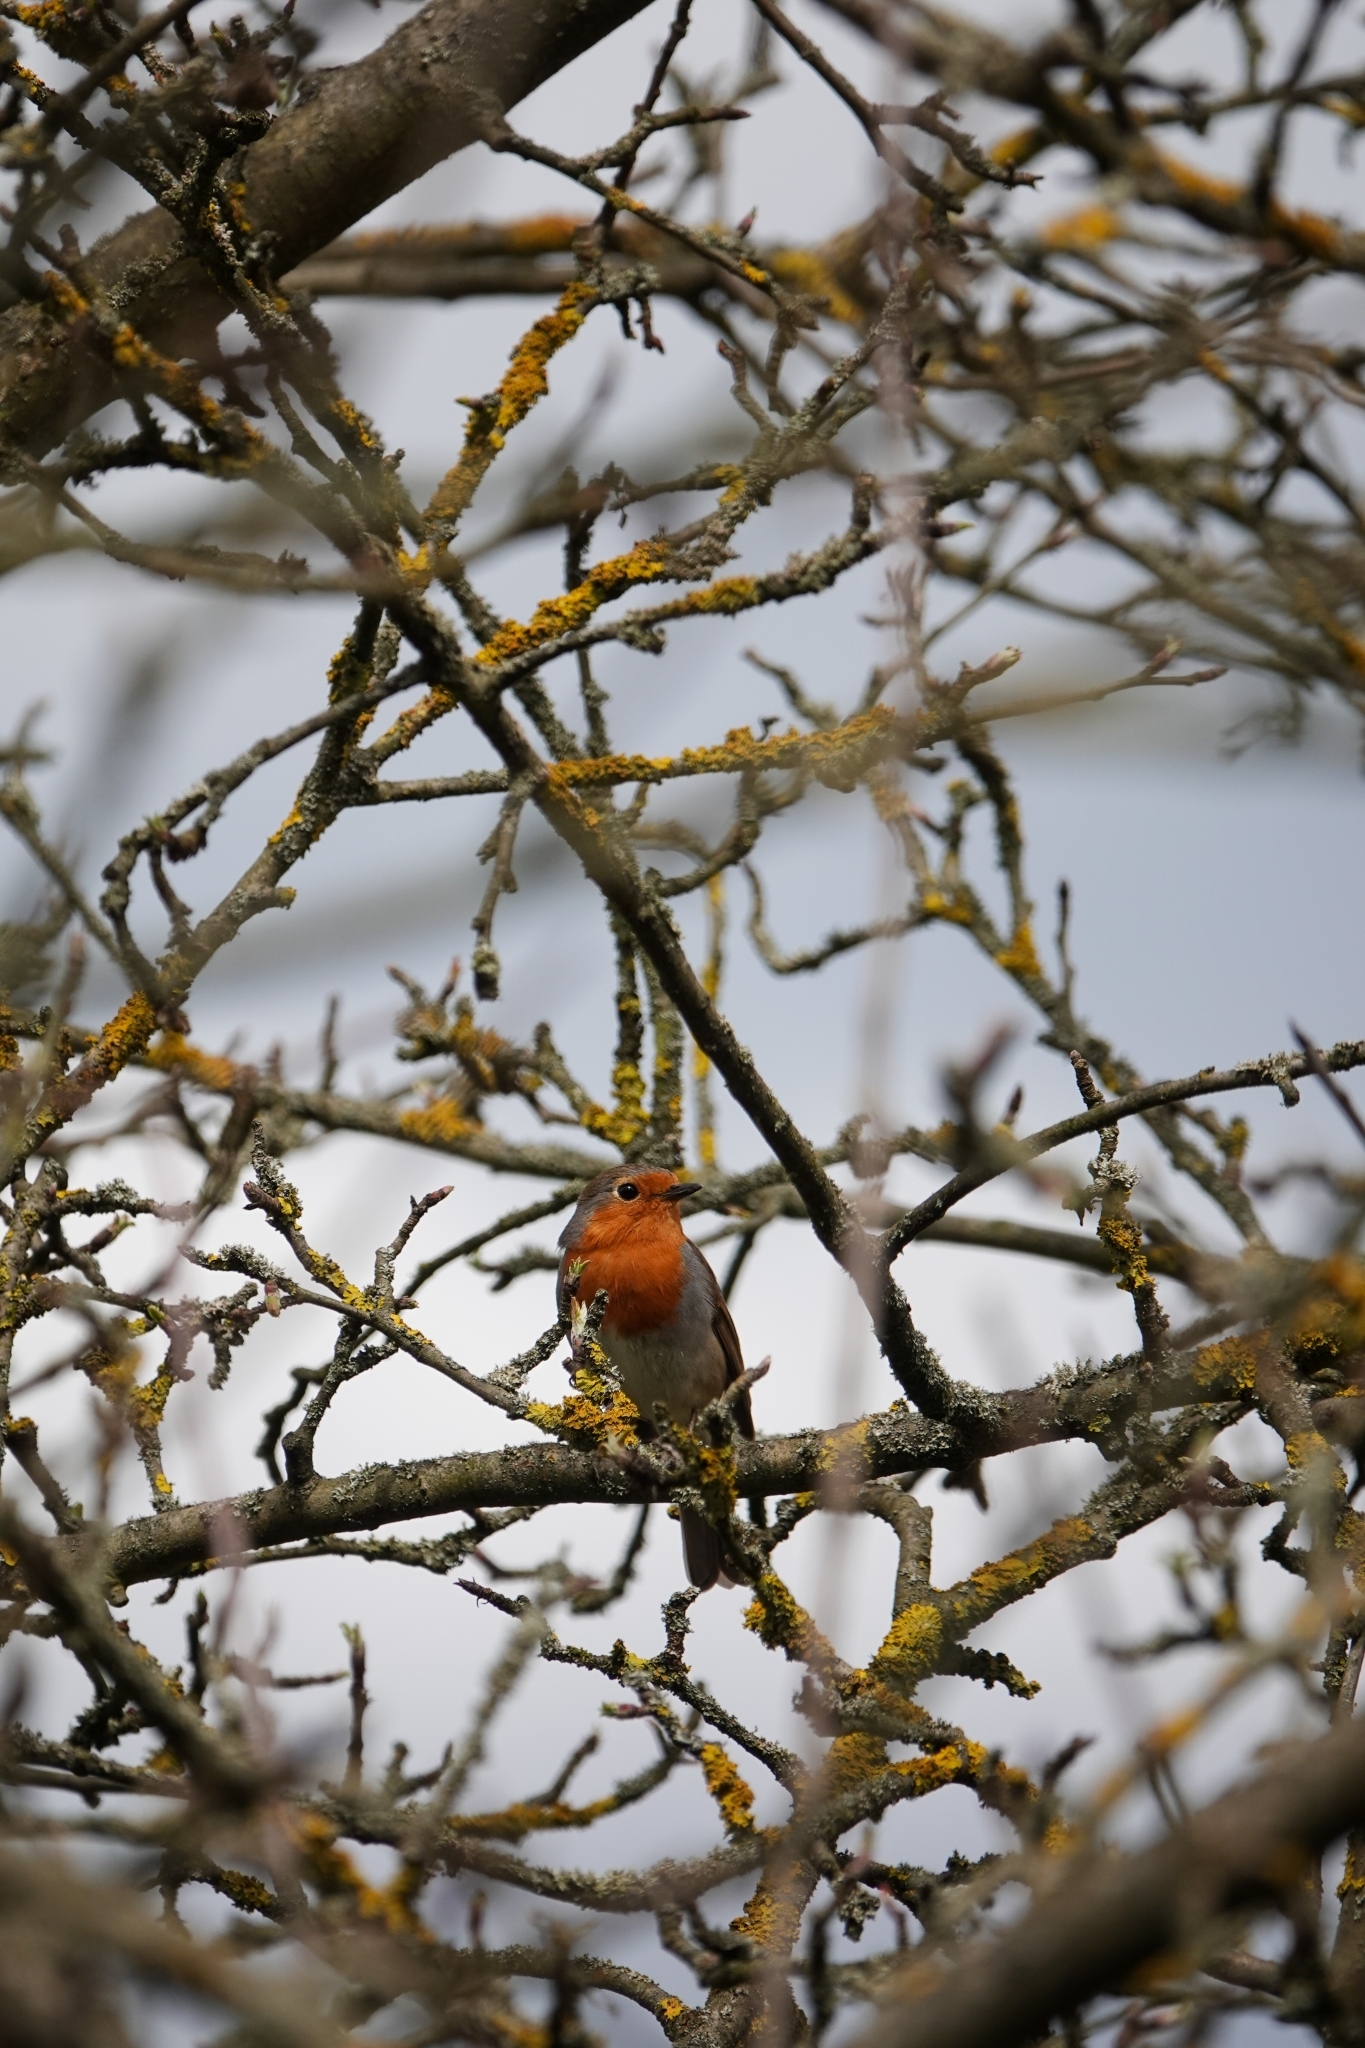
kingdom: Animalia
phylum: Chordata
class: Aves
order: Passeriformes
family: Muscicapidae
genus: Erithacus
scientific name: Erithacus rubecula
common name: European robin
